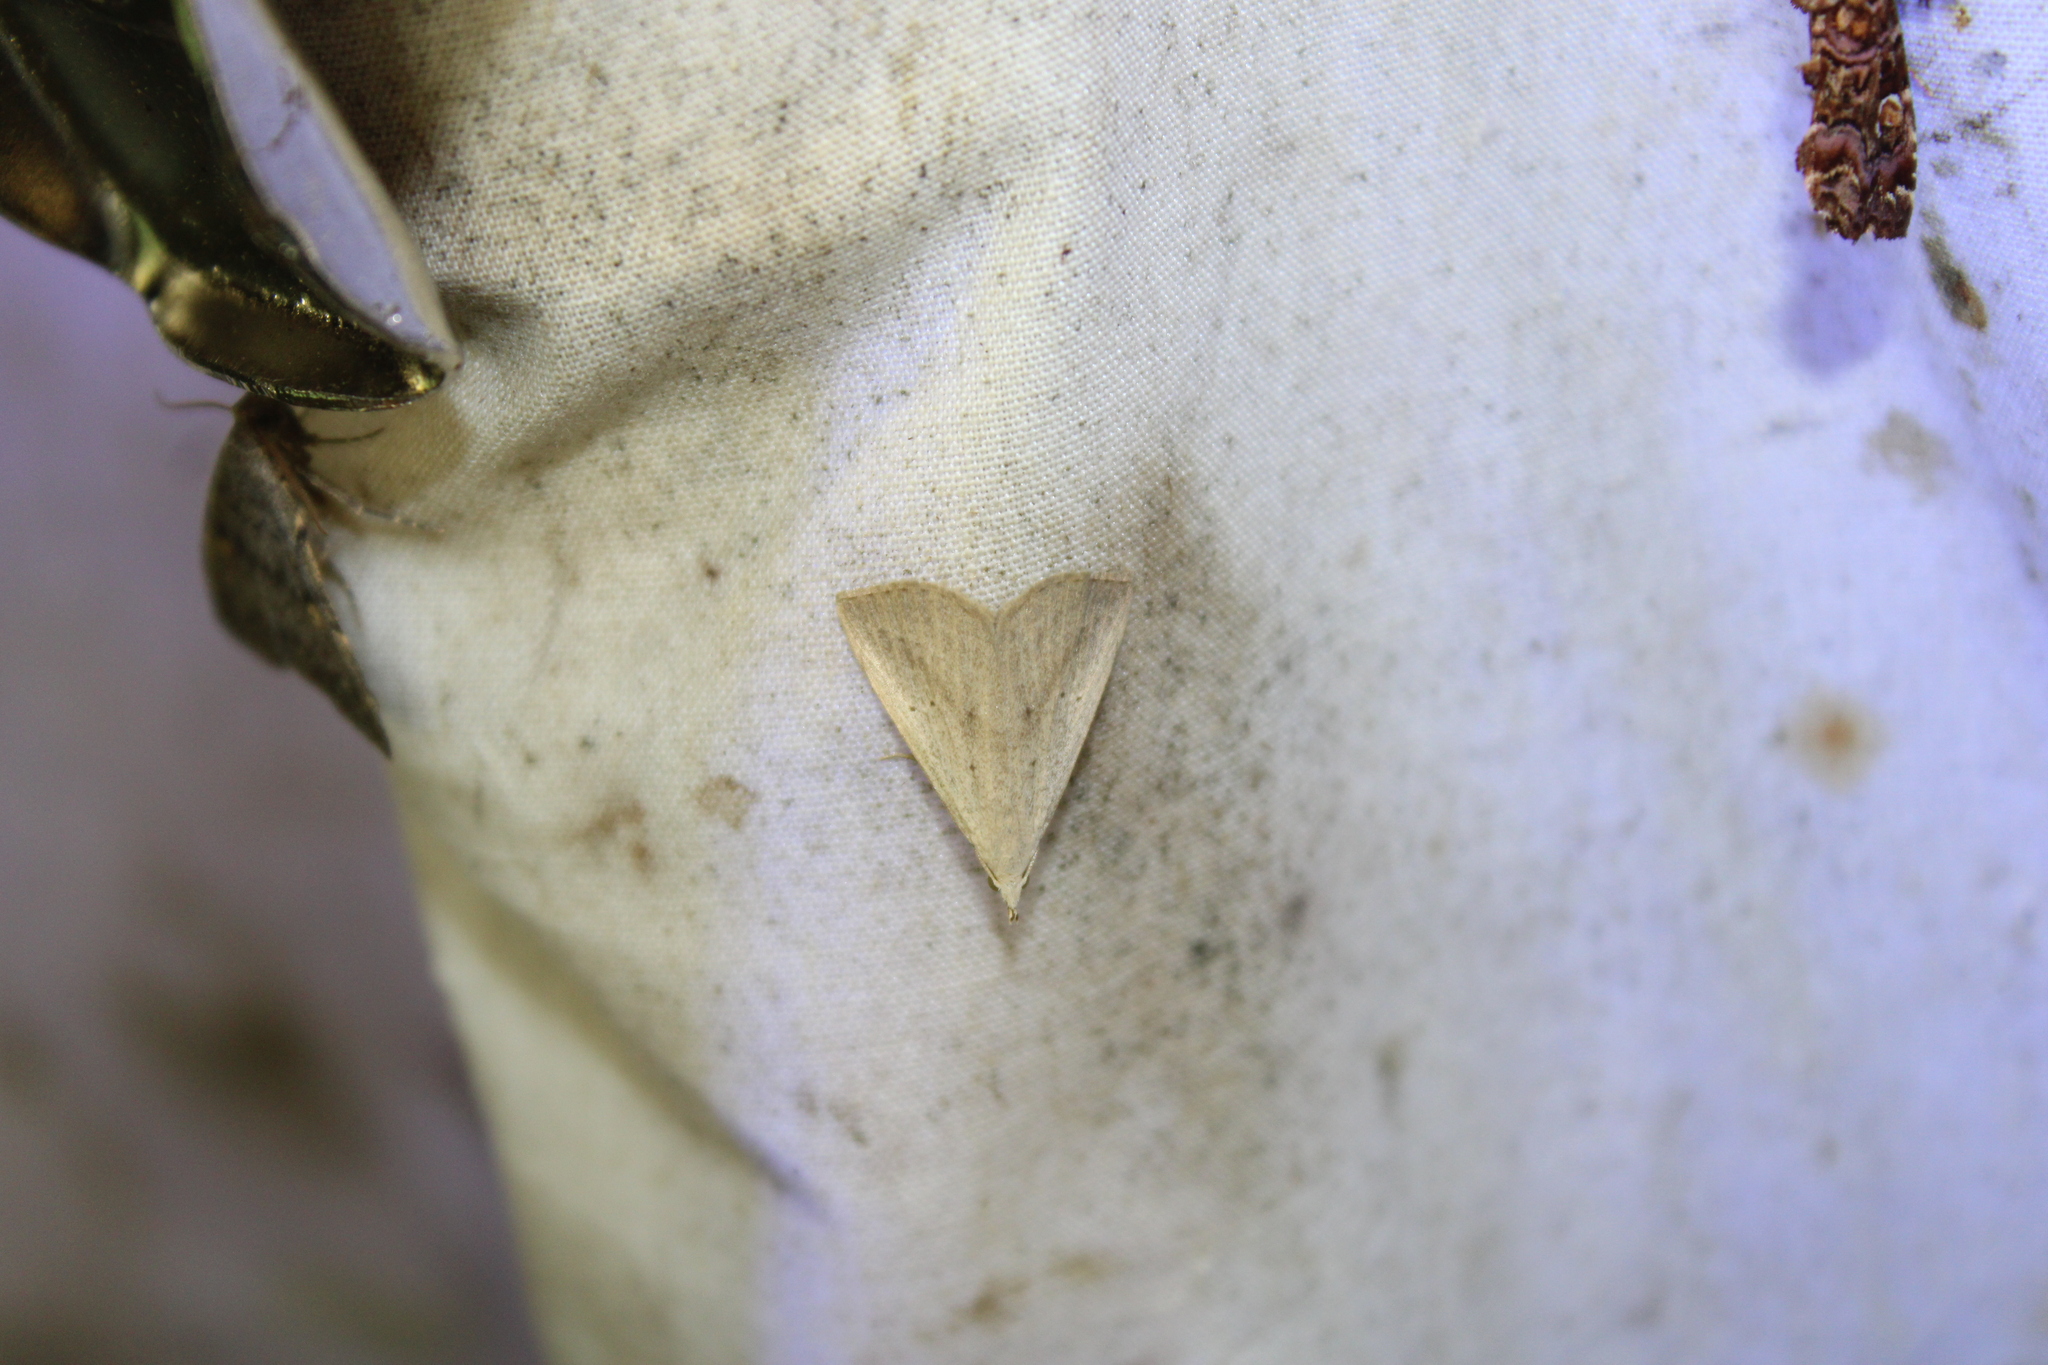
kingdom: Animalia
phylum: Arthropoda
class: Insecta
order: Lepidoptera
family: Erebidae
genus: Macrochilo
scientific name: Macrochilo louisiana
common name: Louisiana macrochilo
